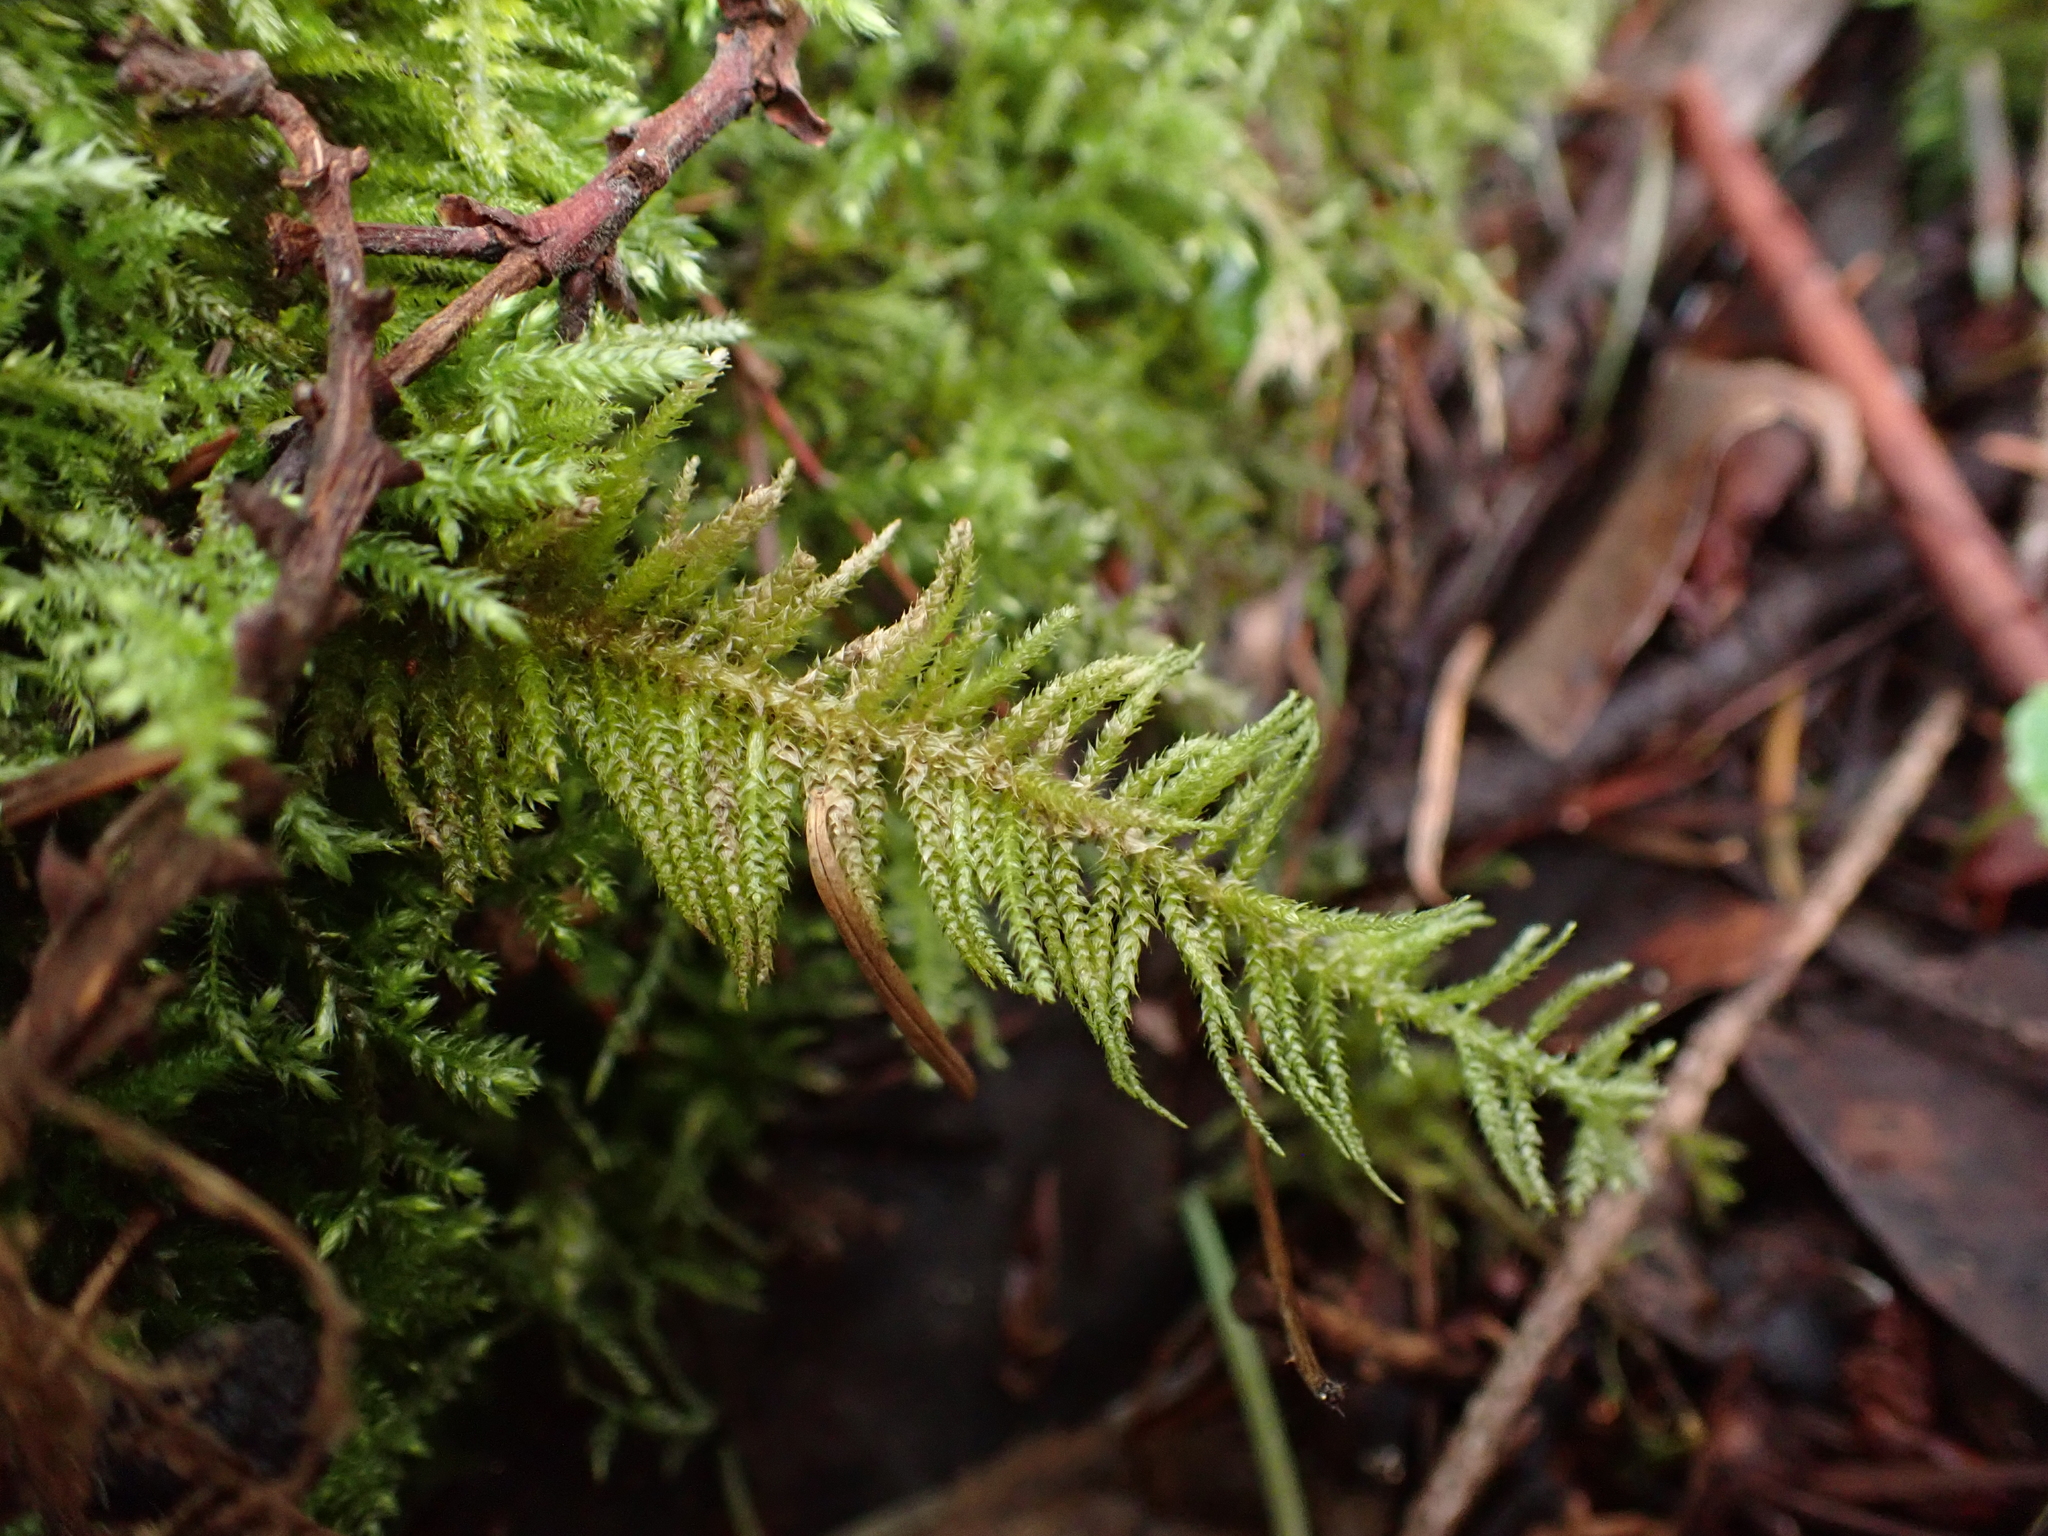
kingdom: Plantae
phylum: Bryophyta
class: Bryopsida
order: Hypnales
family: Brachytheciaceae
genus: Kindbergia
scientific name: Kindbergia oregana
